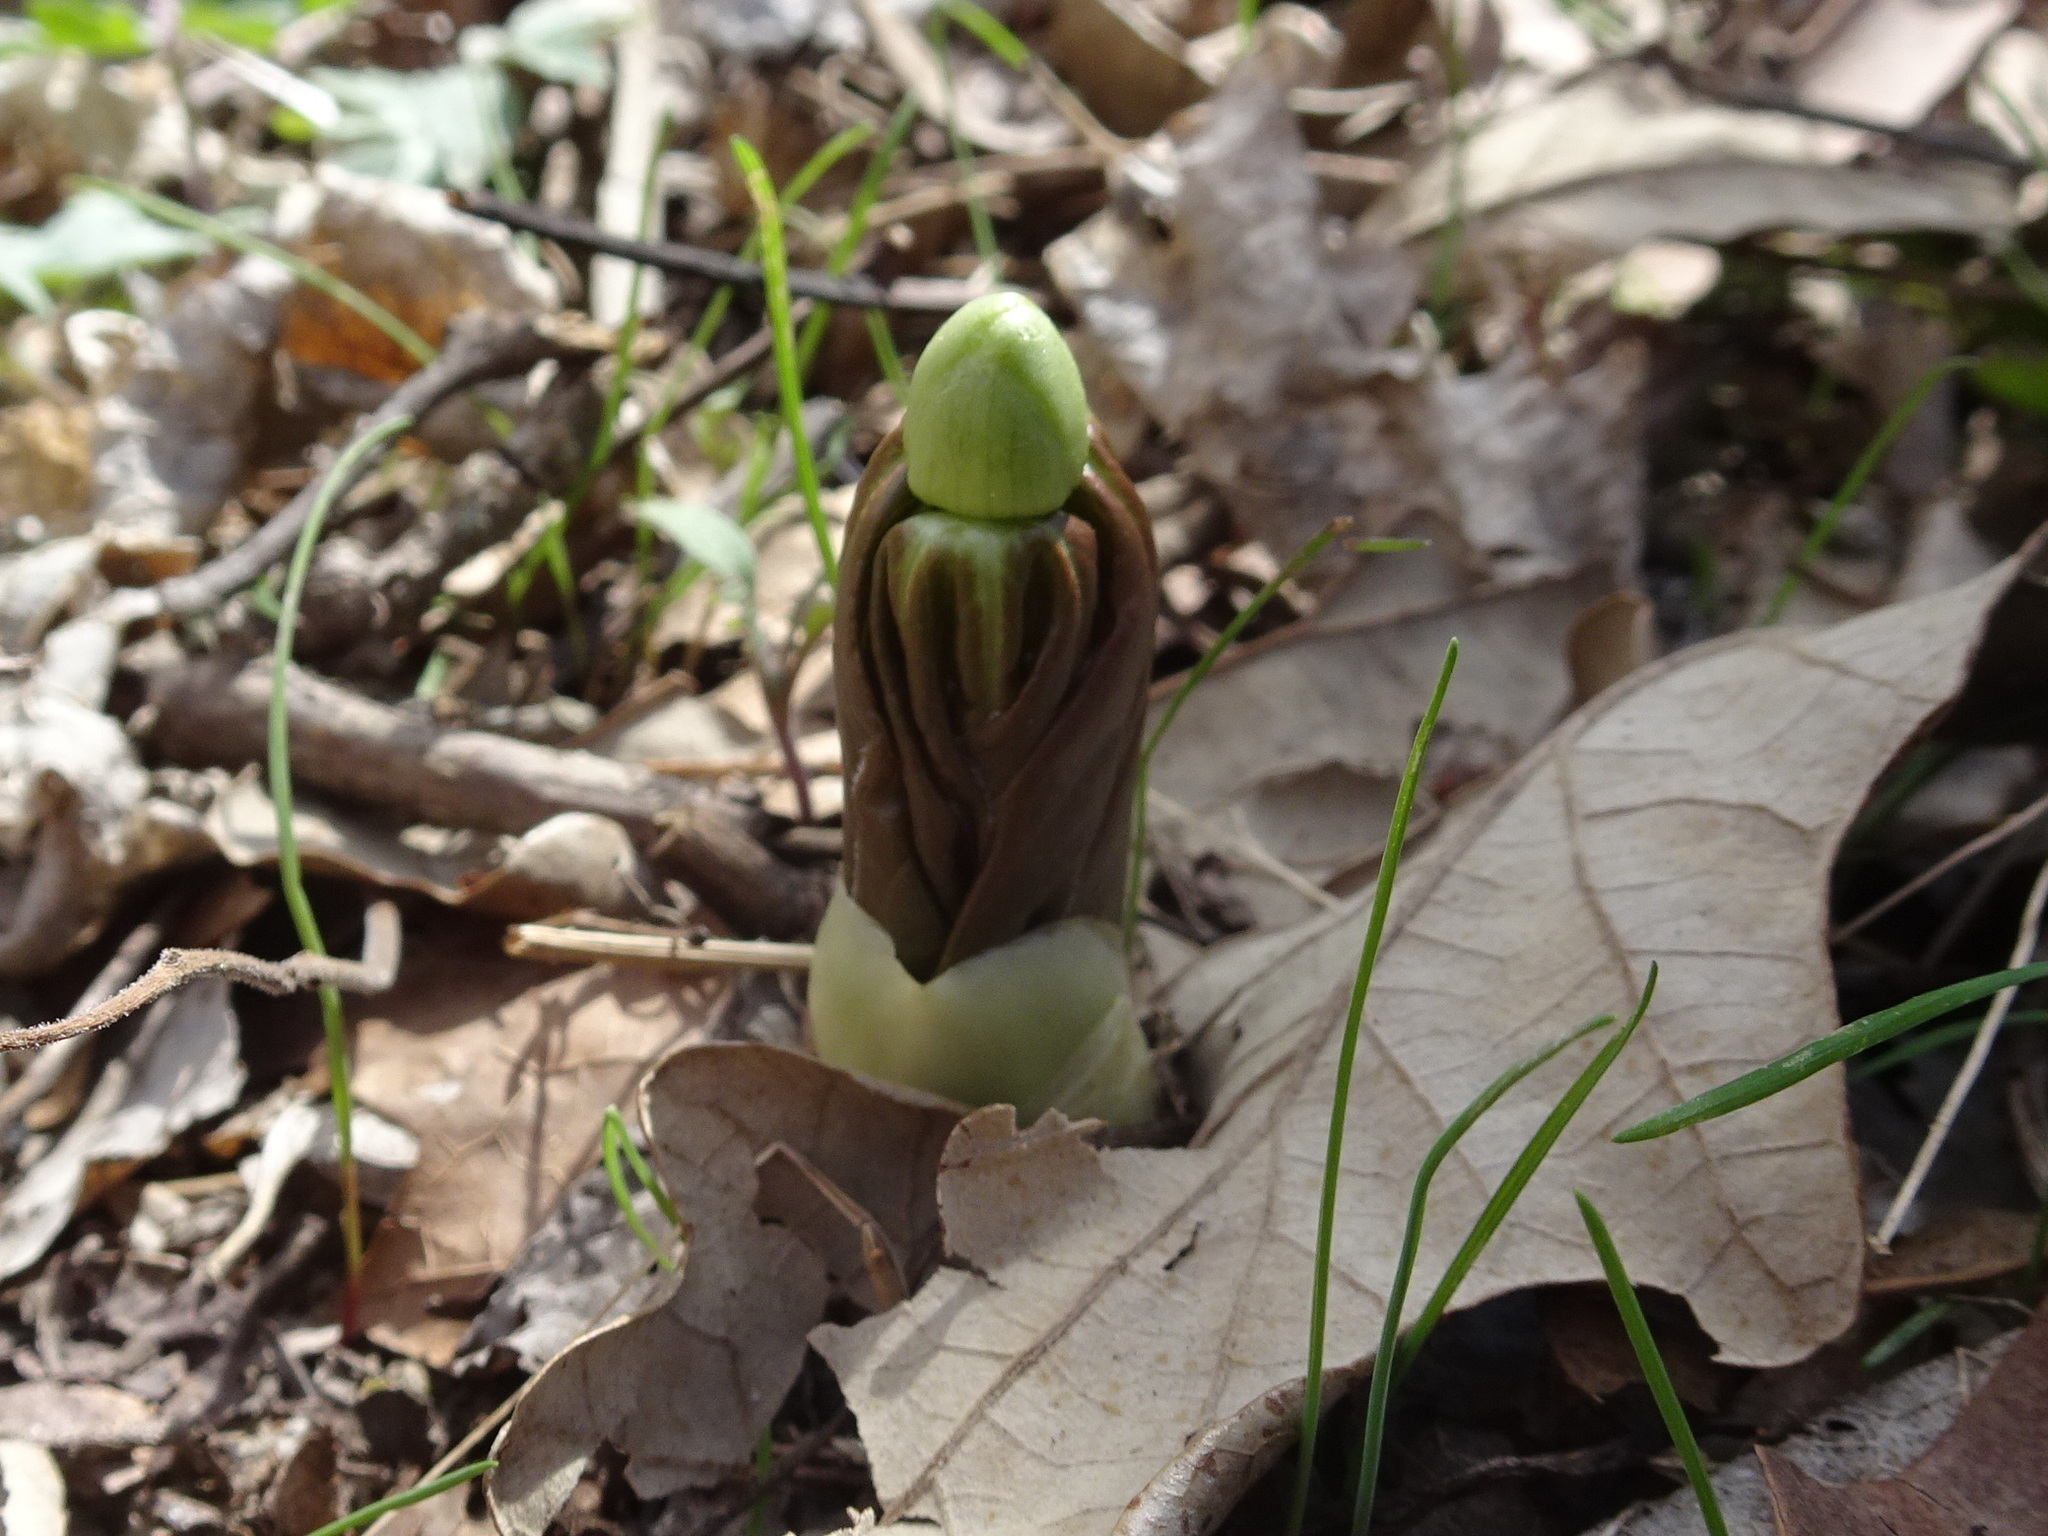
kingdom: Plantae
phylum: Tracheophyta
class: Magnoliopsida
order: Ranunculales
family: Berberidaceae
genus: Podophyllum
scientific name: Podophyllum peltatum
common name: Wild mandrake
